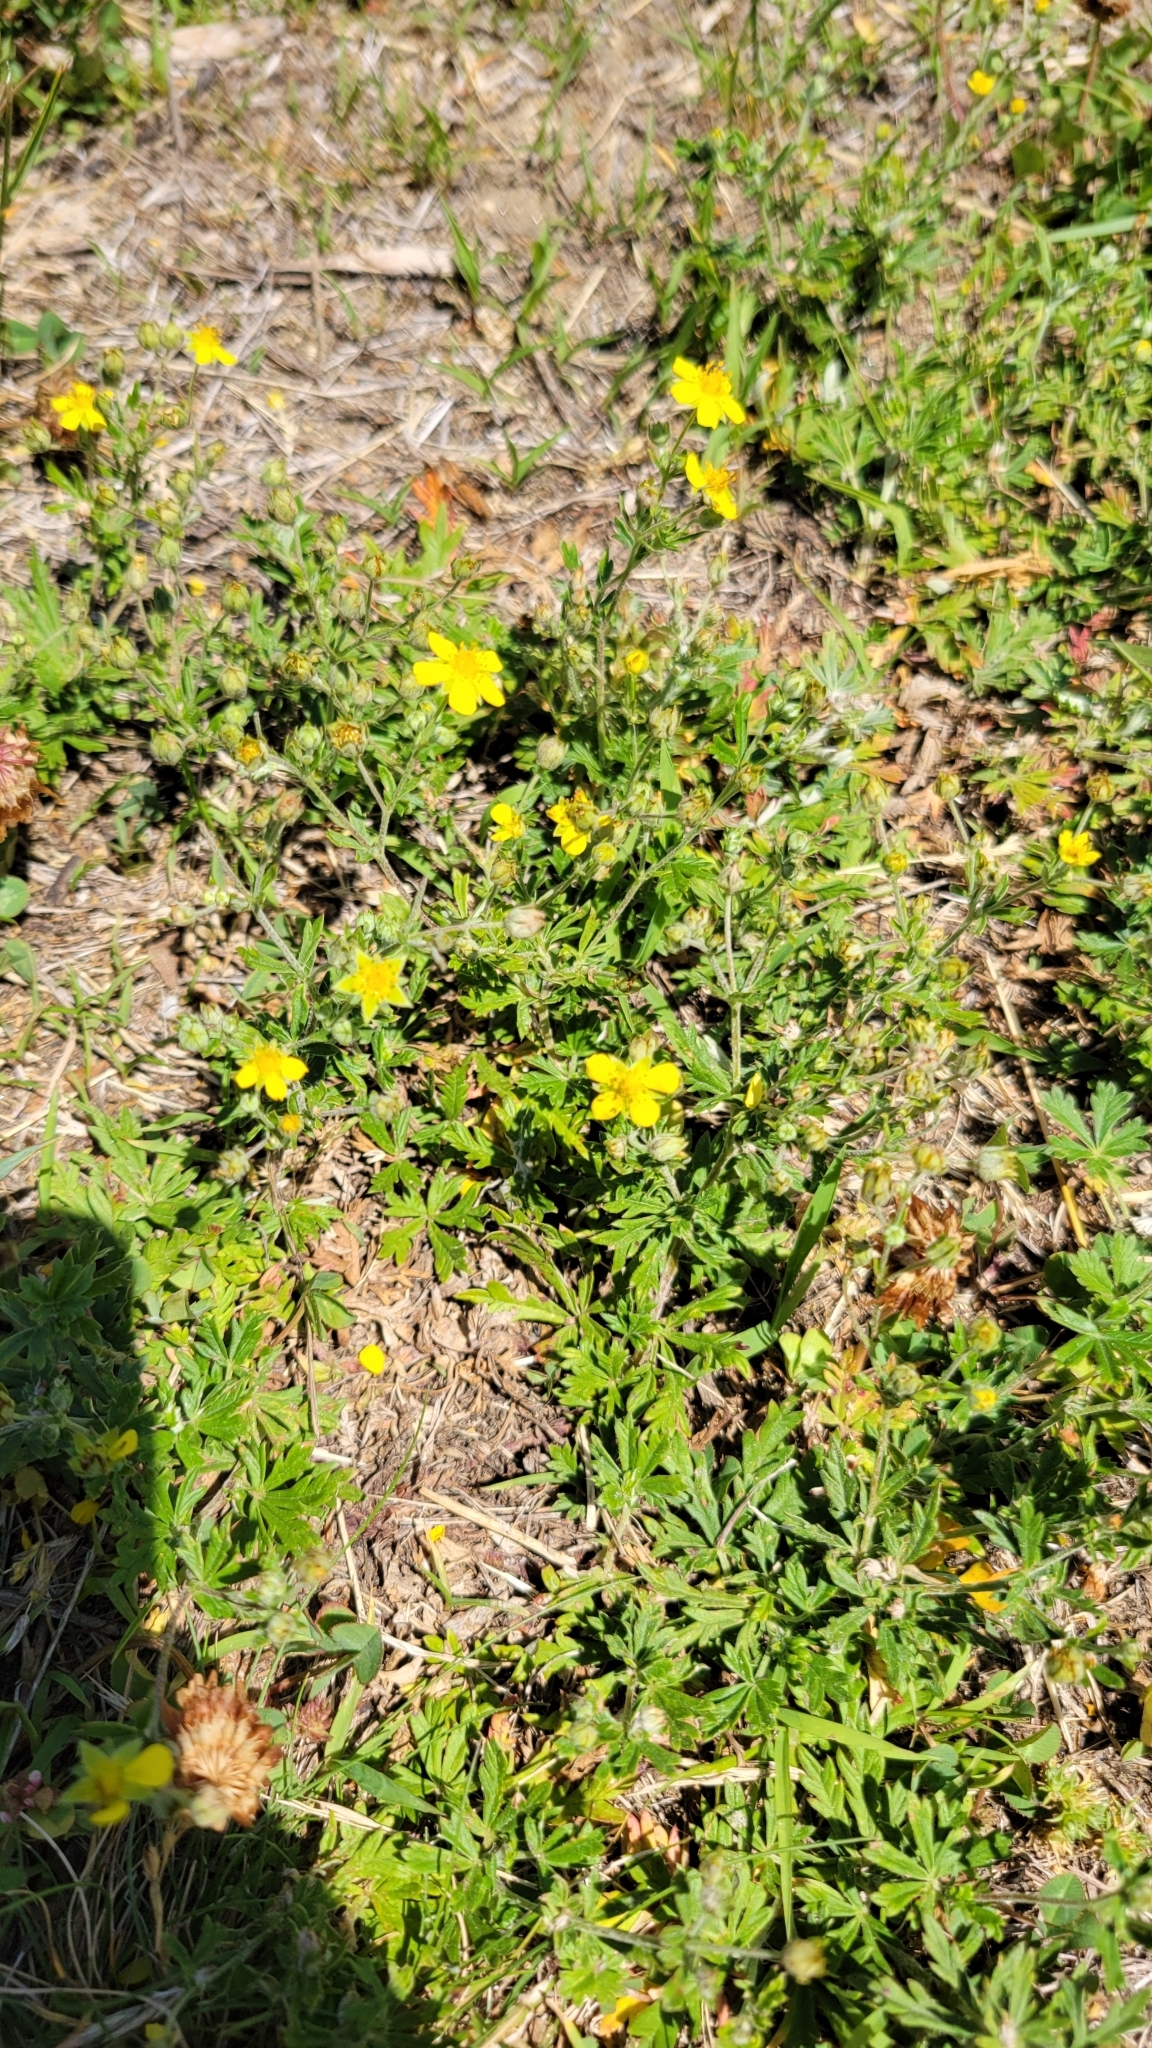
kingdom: Plantae
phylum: Tracheophyta
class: Magnoliopsida
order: Rosales
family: Rosaceae
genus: Potentilla
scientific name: Potentilla argentea
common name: Hoary cinquefoil
